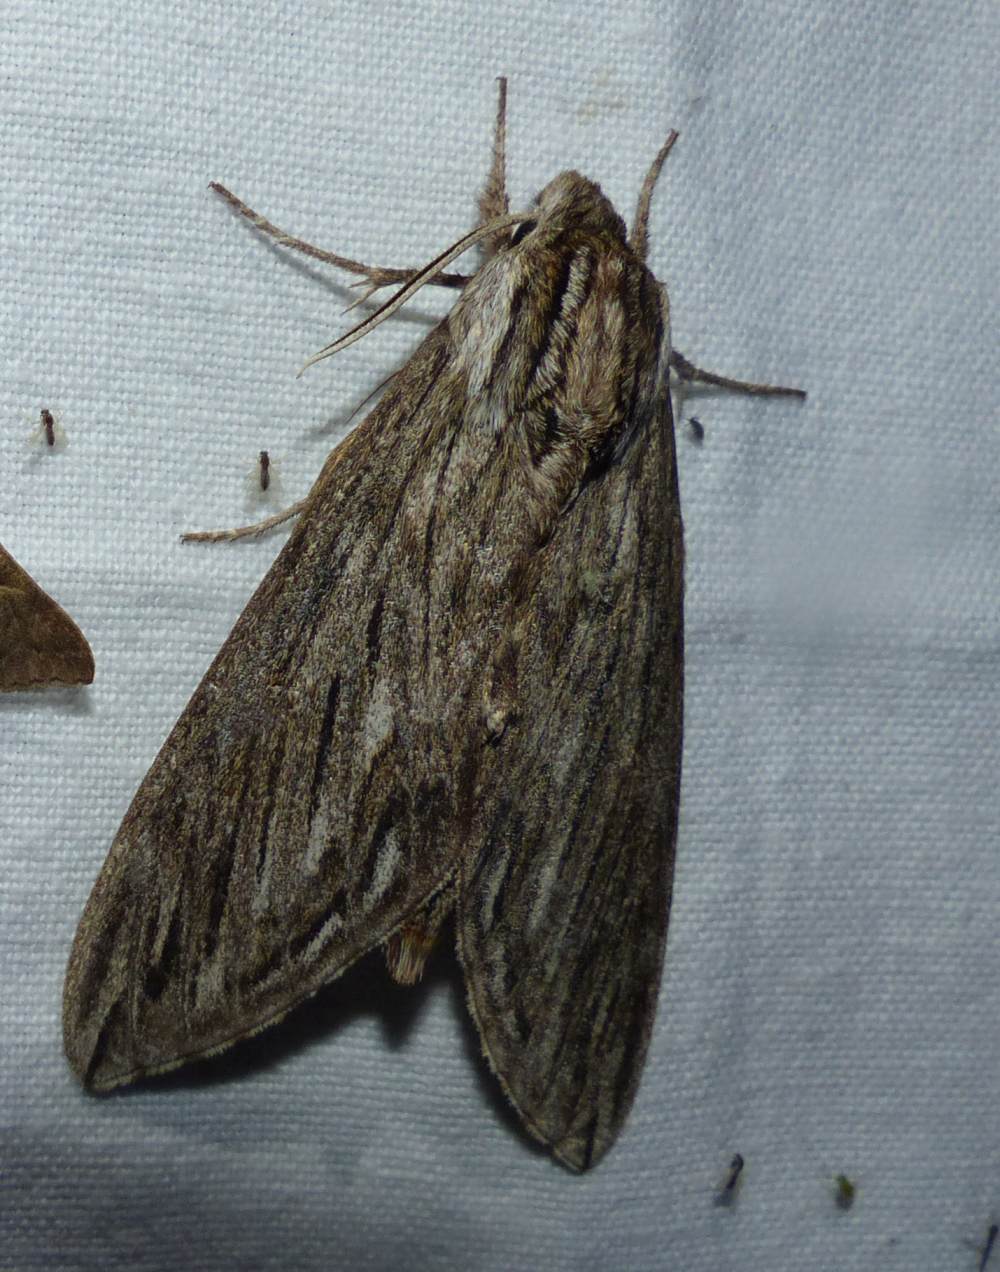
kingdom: Animalia
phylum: Arthropoda
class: Insecta
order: Lepidoptera
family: Sphingidae
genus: Sphinx
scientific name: Sphinx canadensis
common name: Canadian sphinx
